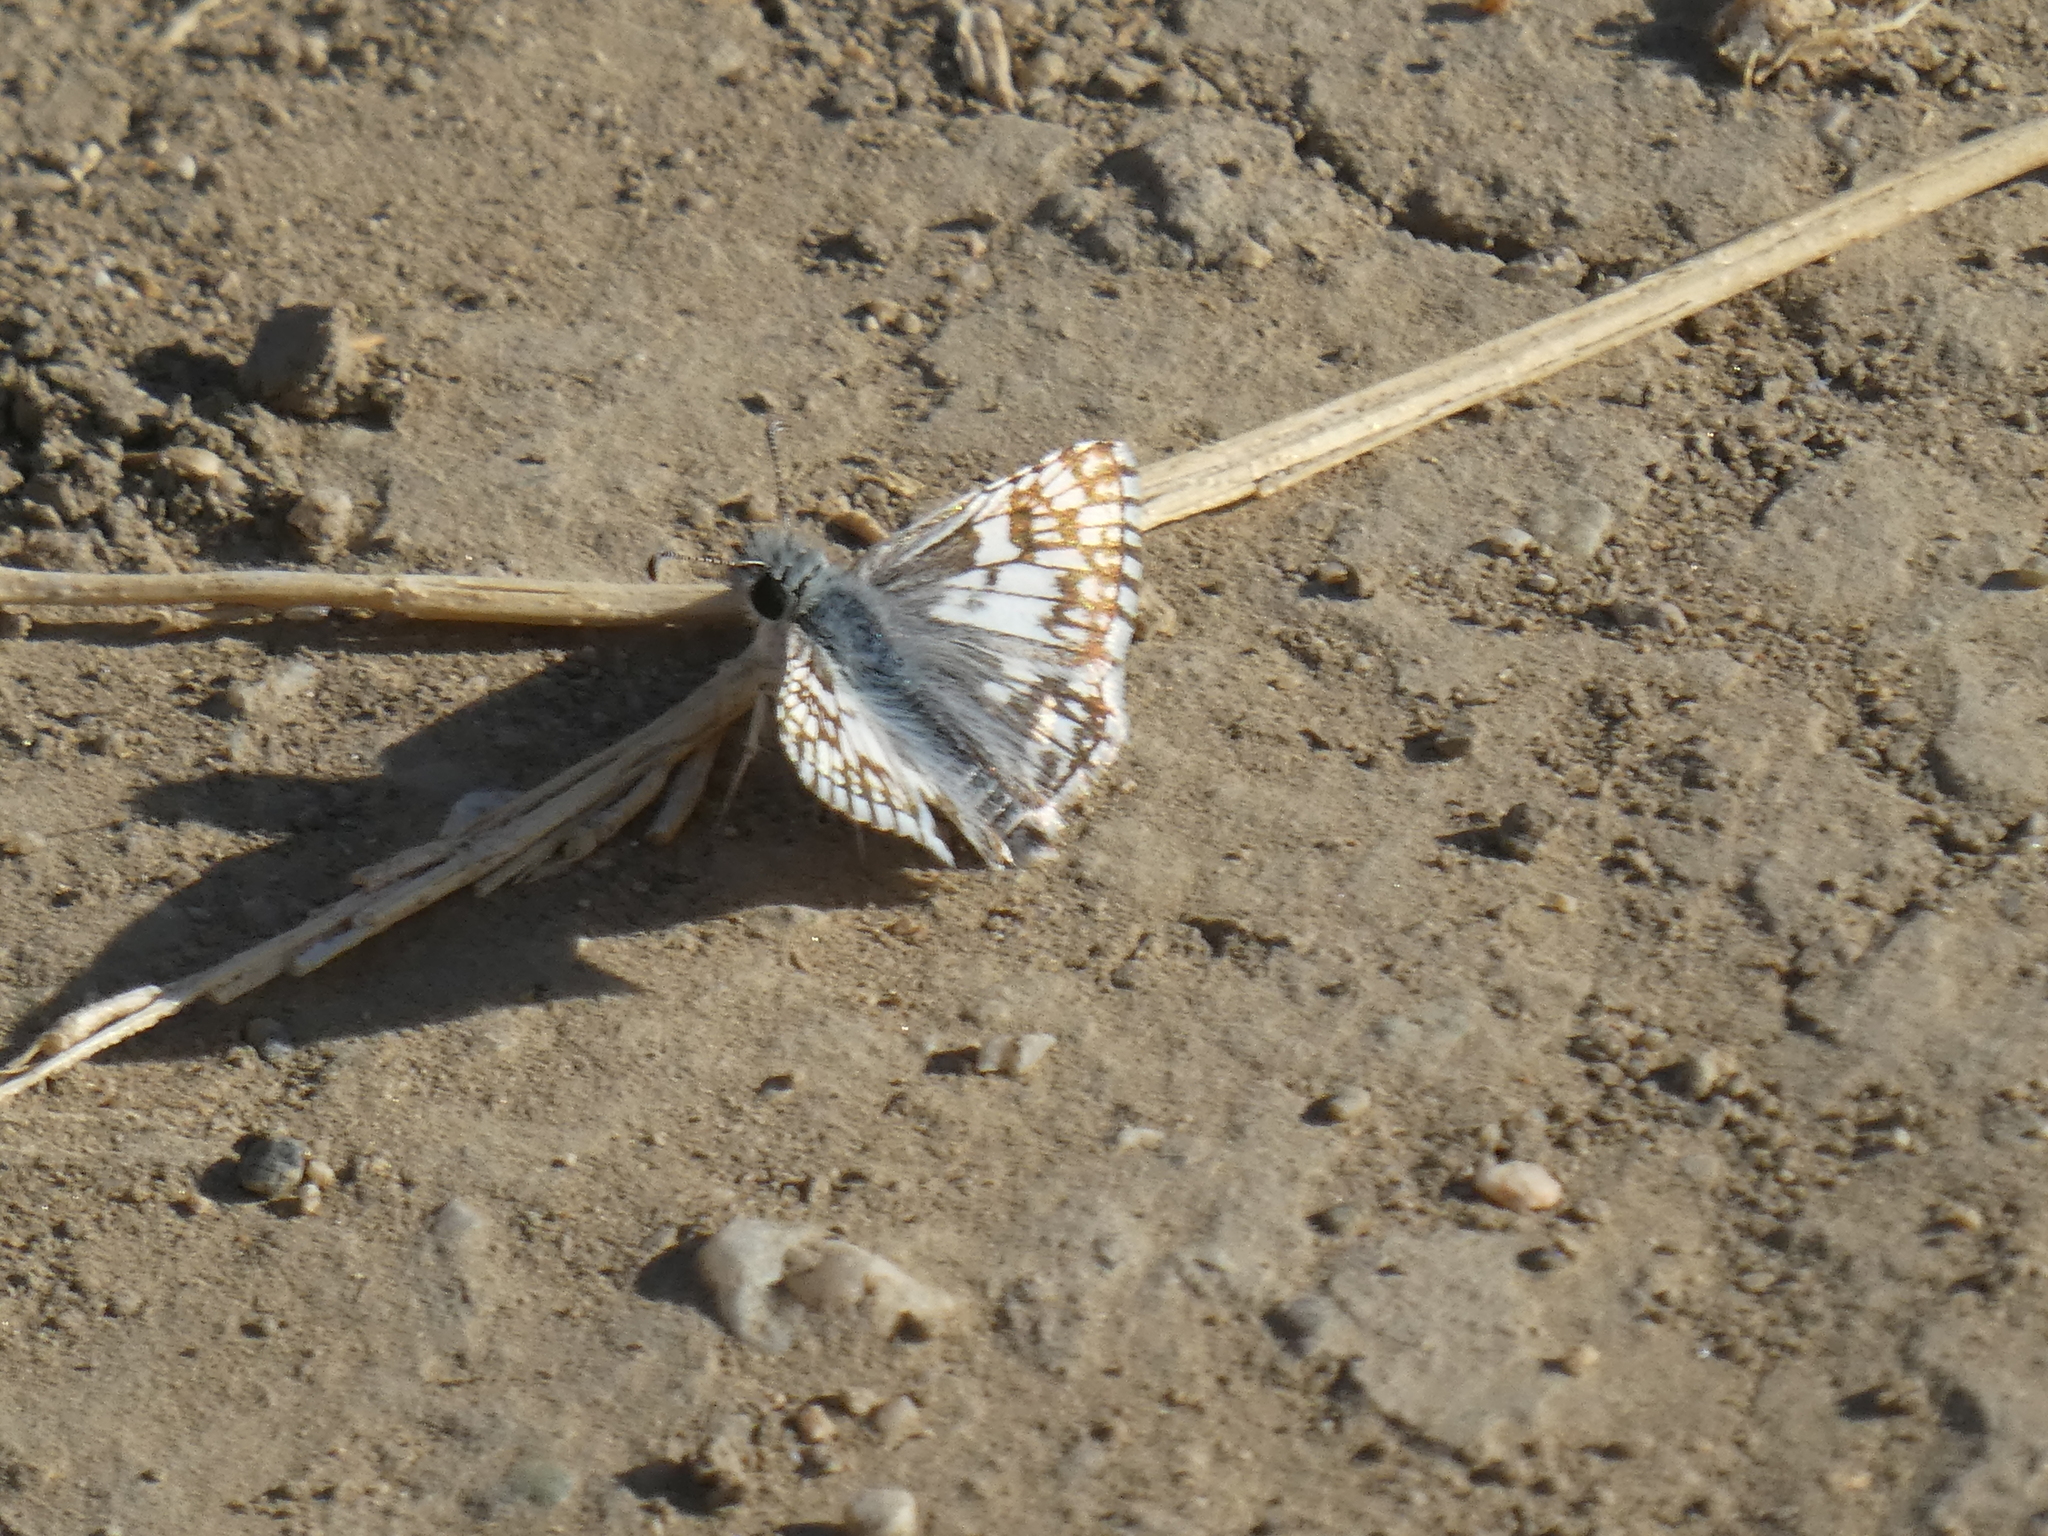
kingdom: Animalia
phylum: Arthropoda
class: Insecta
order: Lepidoptera
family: Hesperiidae
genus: Burnsius
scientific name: Burnsius albezens
